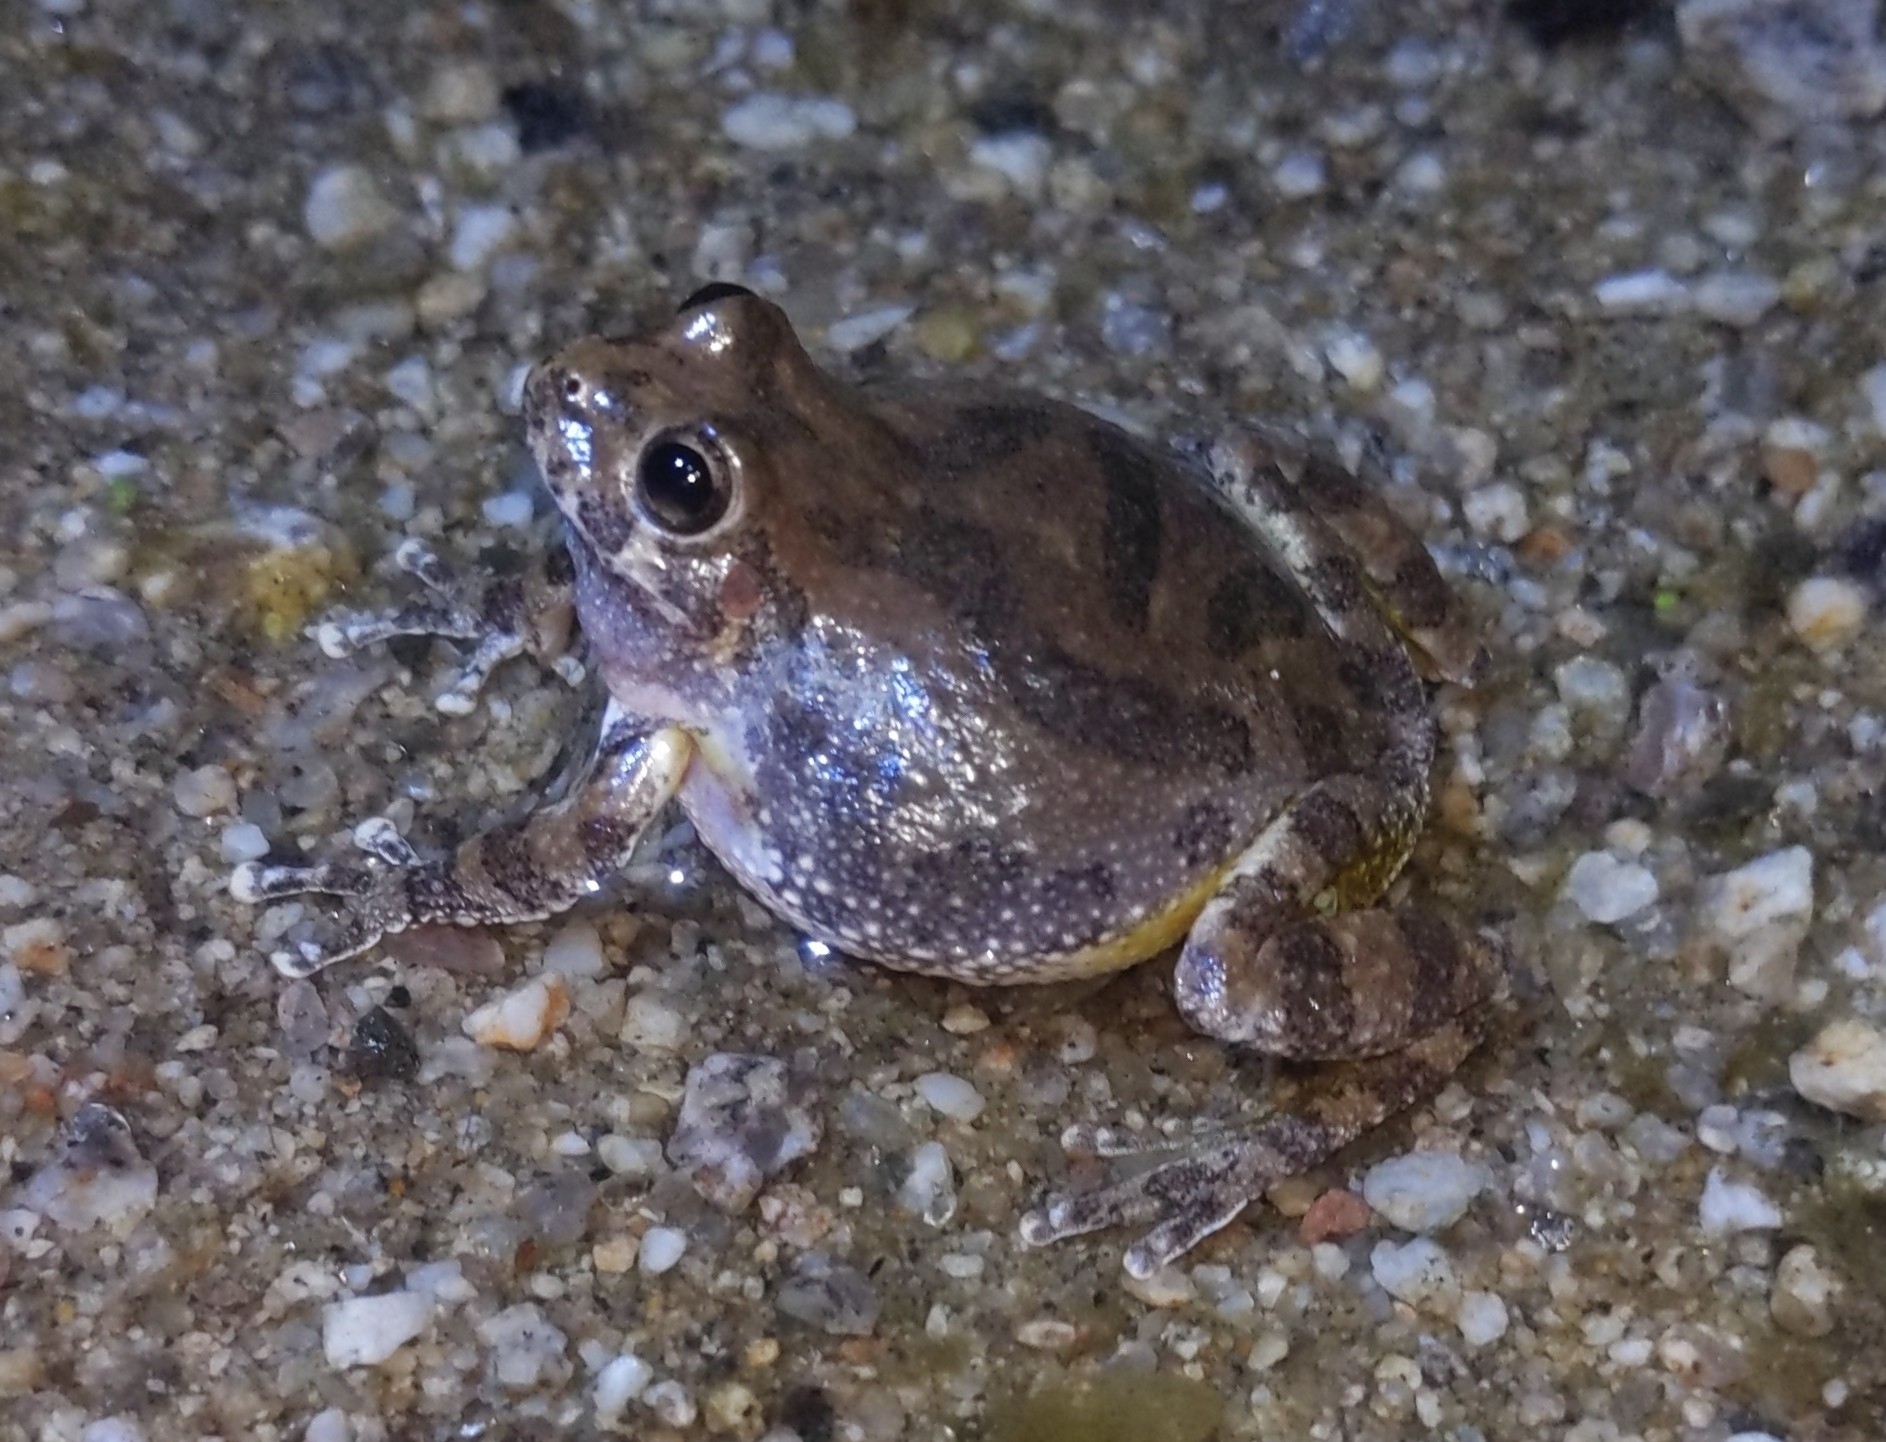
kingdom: Animalia
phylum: Chordata
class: Amphibia
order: Anura
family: Hylidae
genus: Dryophytes
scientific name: Dryophytes arenicolor
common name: Canyon treefrog
